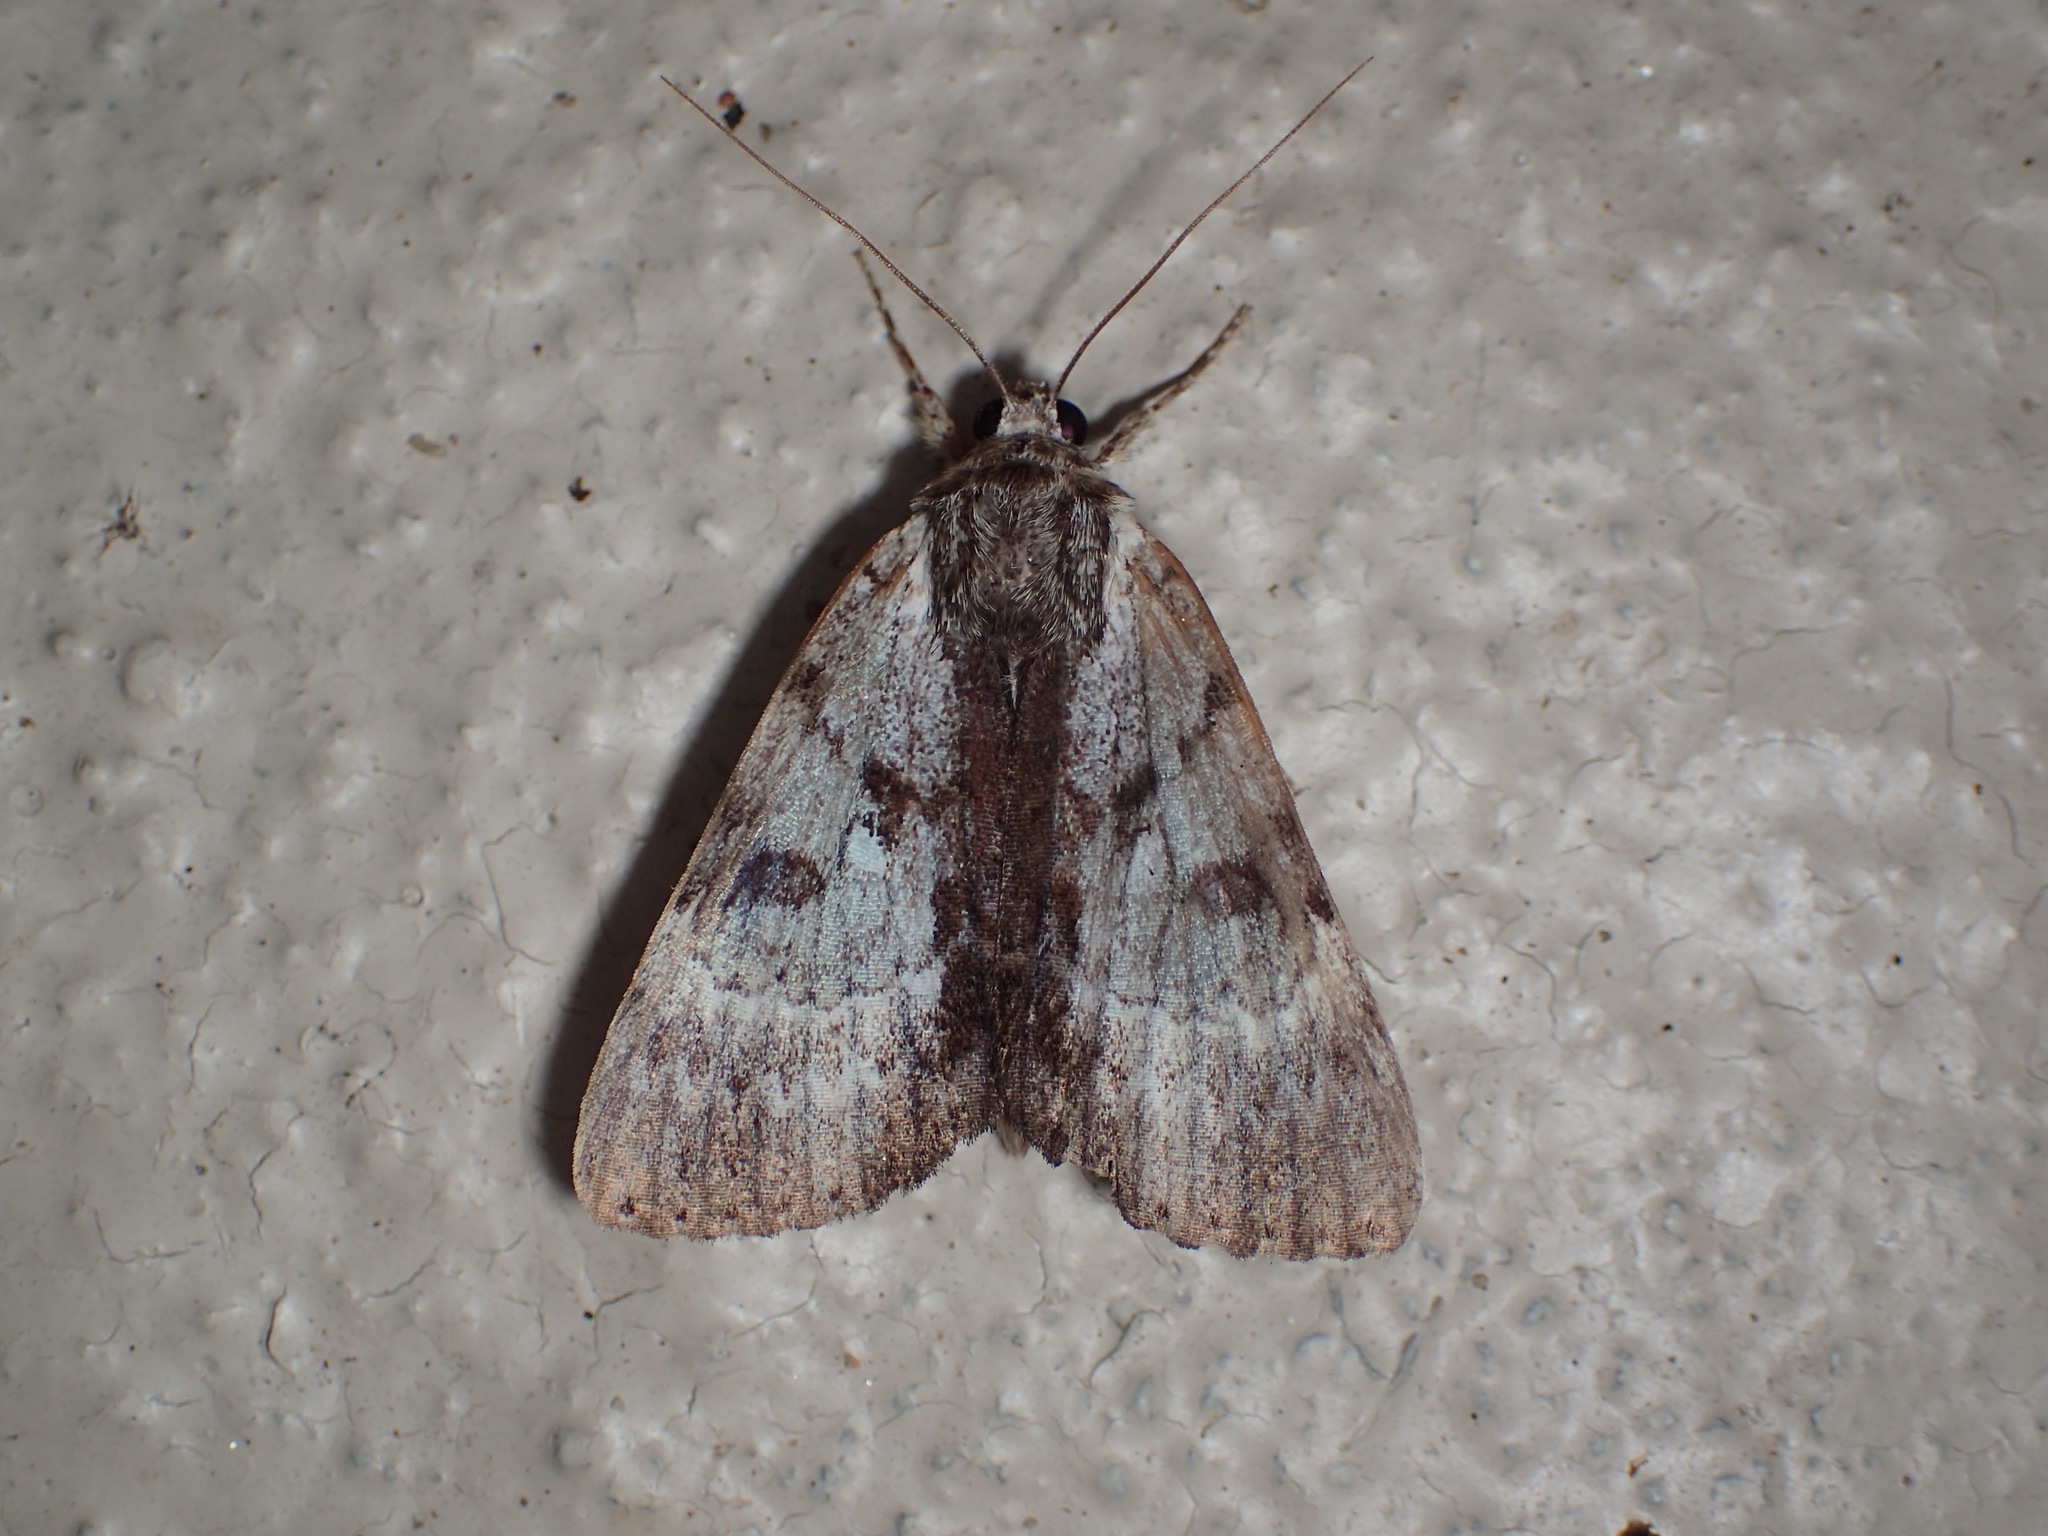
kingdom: Animalia
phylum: Arthropoda
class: Insecta
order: Lepidoptera
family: Erebidae
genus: Catocala
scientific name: Catocala andromedae
